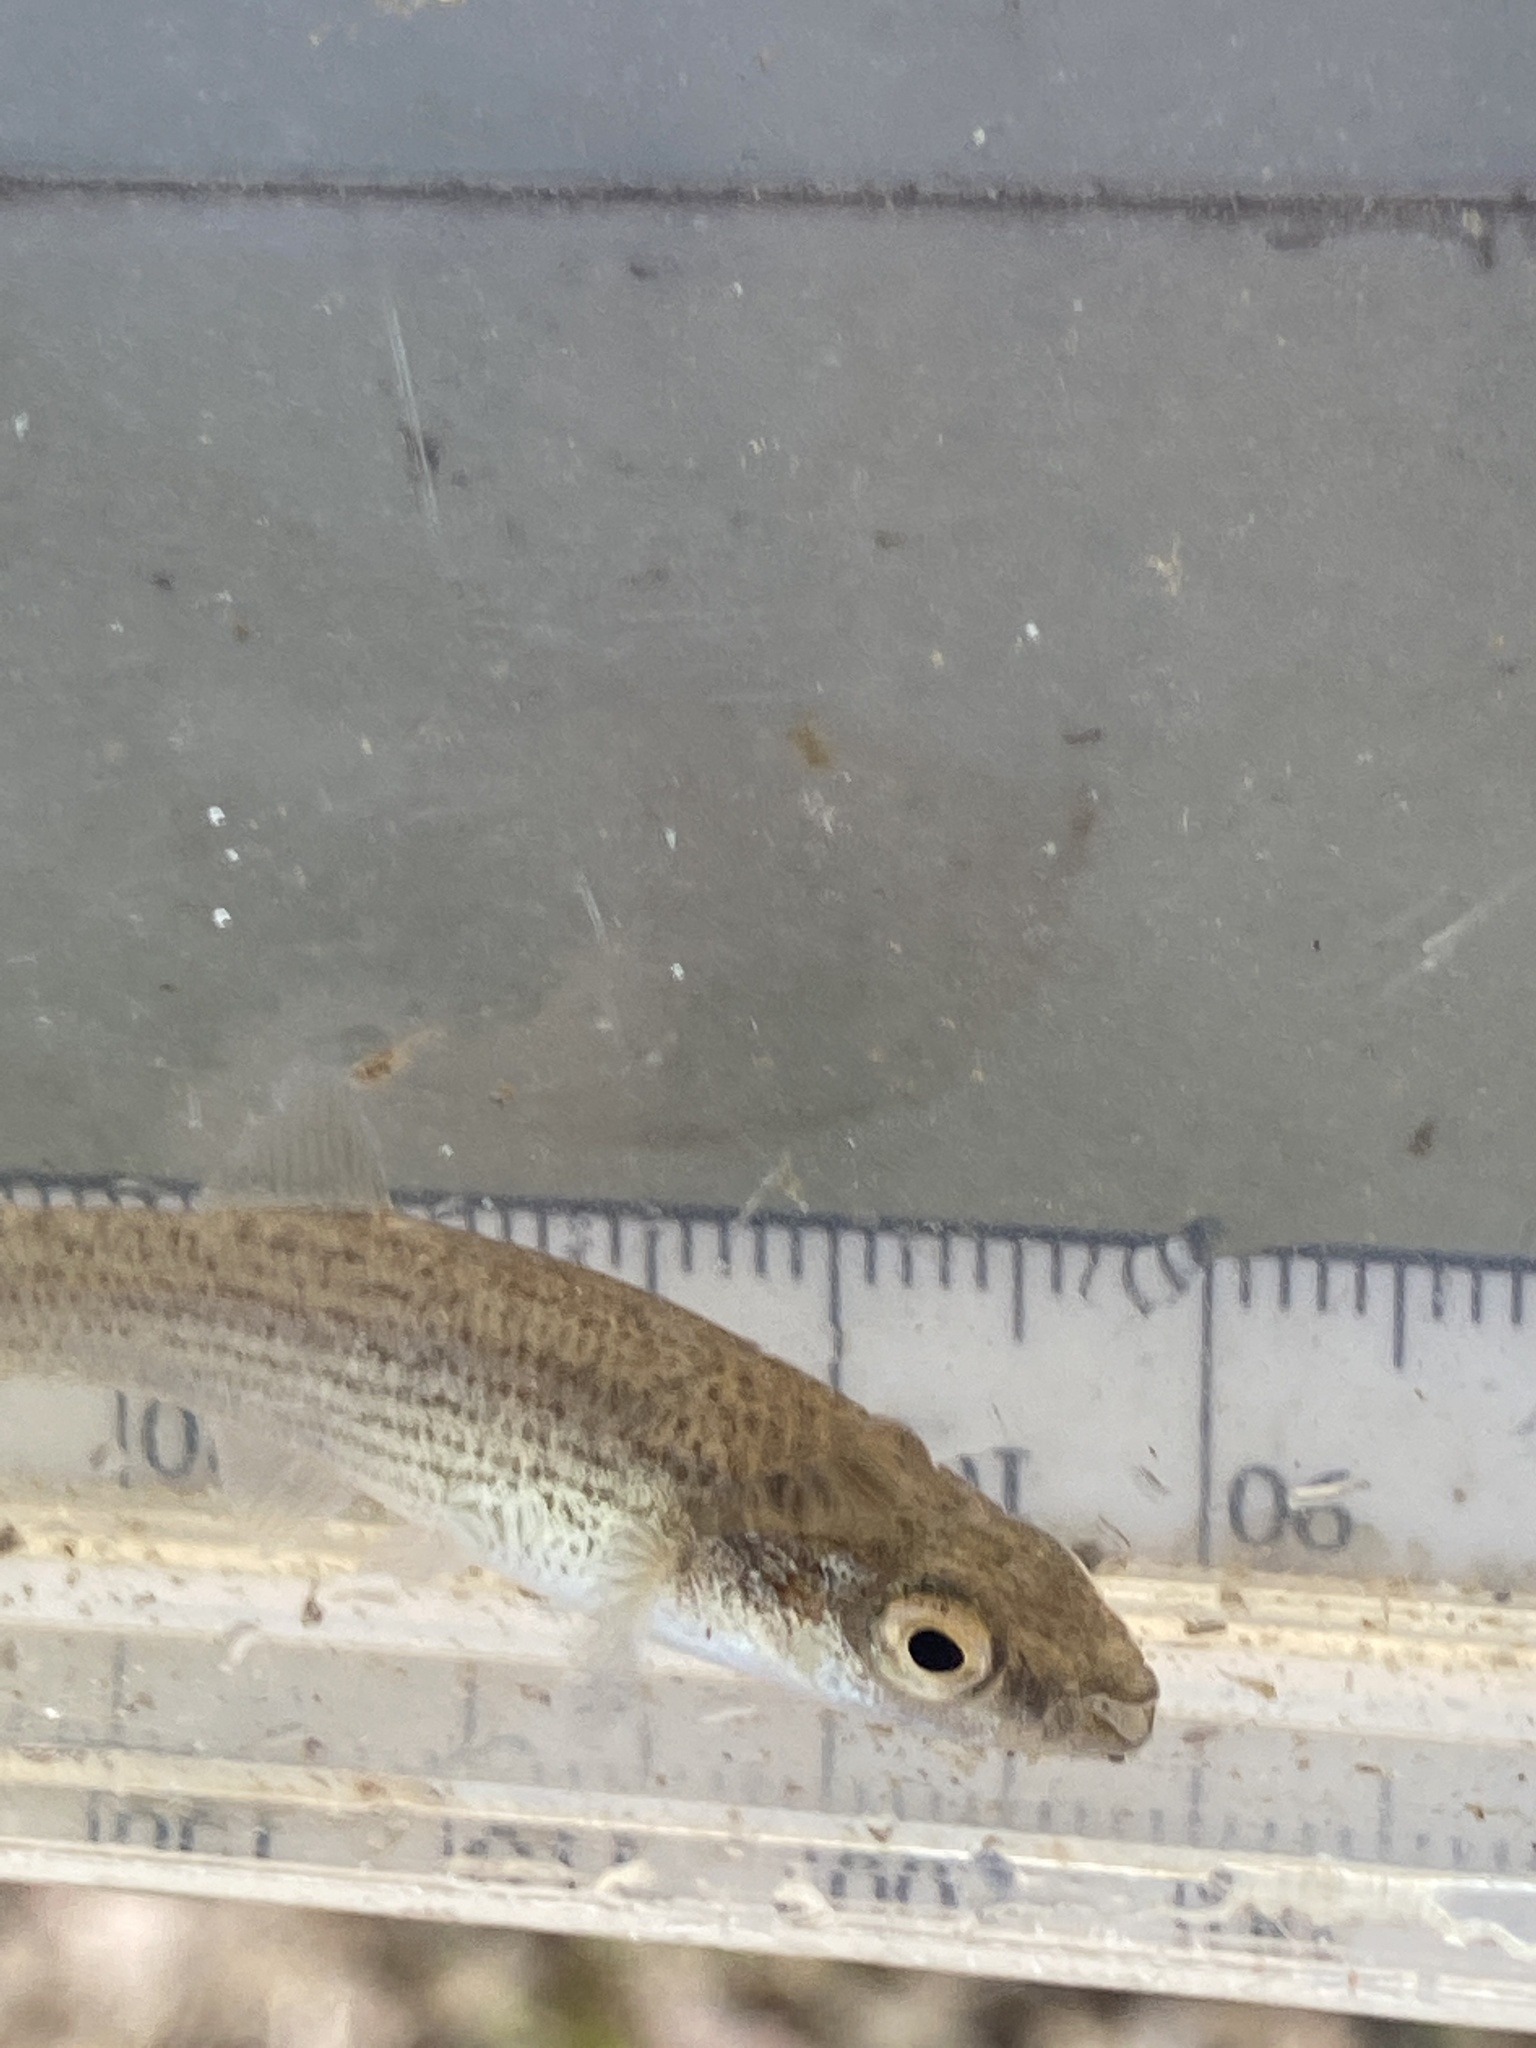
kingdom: Animalia
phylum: Chordata
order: Cyprinodontiformes
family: Fundulidae
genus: Fundulus
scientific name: Fundulus catenatus
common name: Northern studfish
